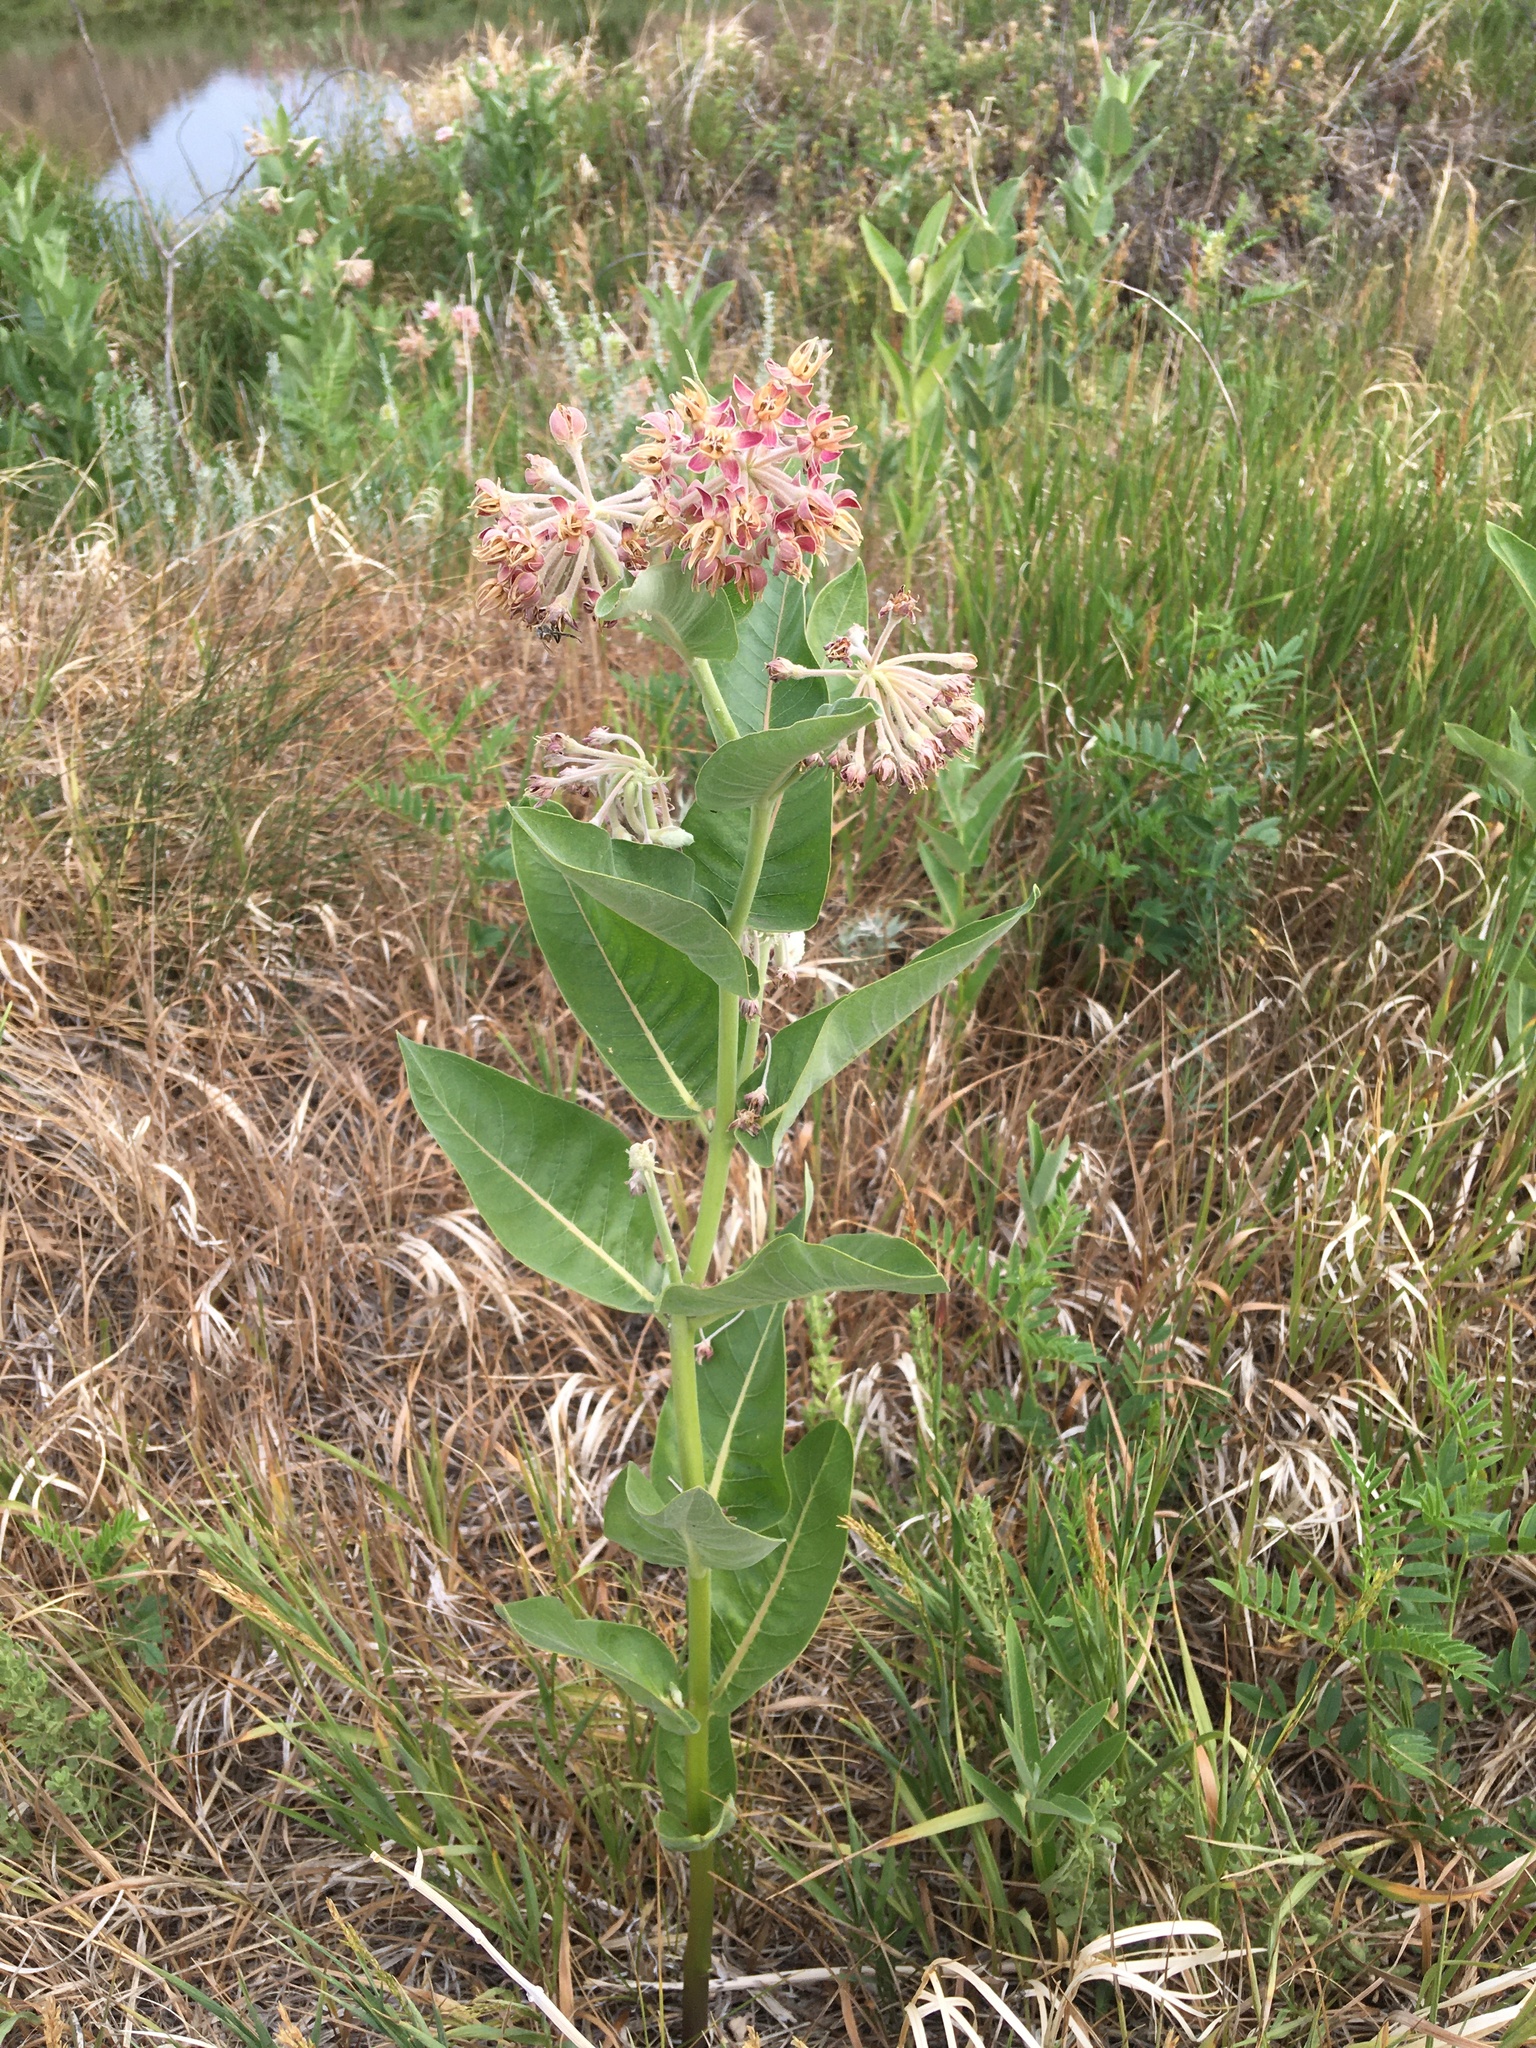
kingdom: Plantae
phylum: Tracheophyta
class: Magnoliopsida
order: Gentianales
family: Apocynaceae
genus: Asclepias
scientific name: Asclepias speciosa
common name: Showy milkweed
